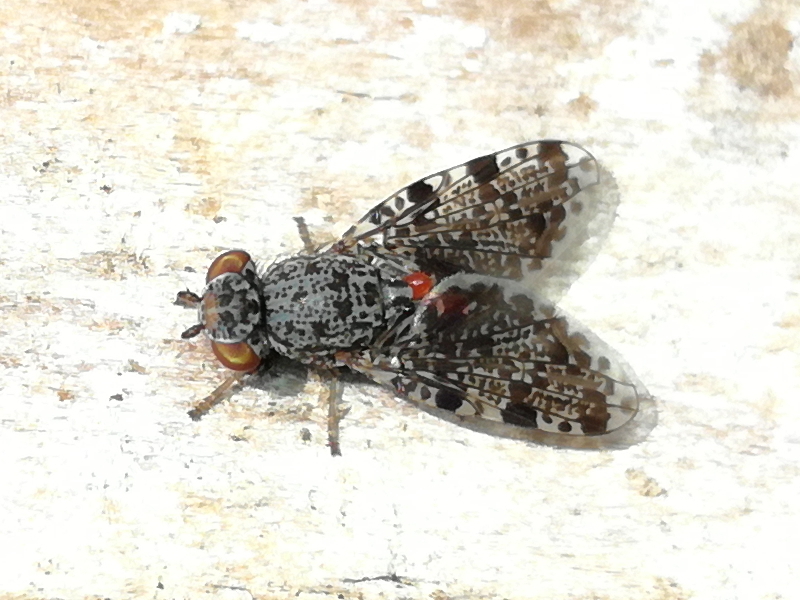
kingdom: Animalia
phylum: Arthropoda
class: Insecta
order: Diptera
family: Ulidiidae
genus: Callopistromyia
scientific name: Callopistromyia annulipes
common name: Peacock fly
